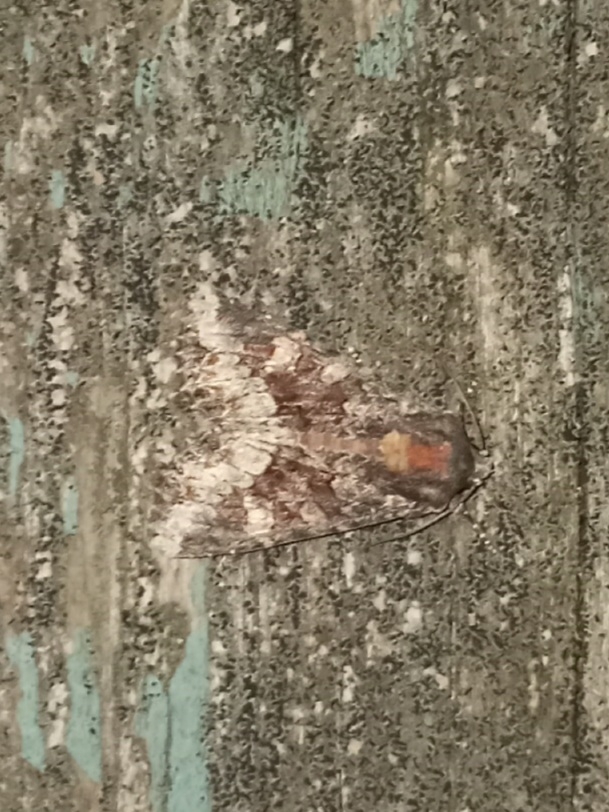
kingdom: Animalia
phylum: Arthropoda
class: Insecta
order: Lepidoptera
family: Noctuidae
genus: Apamea
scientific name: Apamea amputatrix
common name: Yellow-headed cutworm moth
